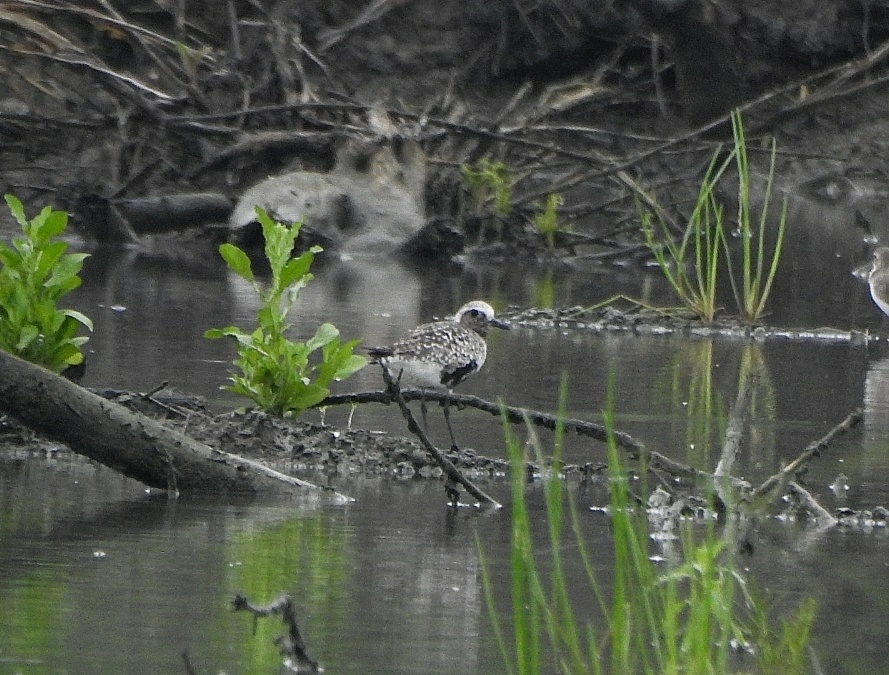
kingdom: Animalia
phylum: Chordata
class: Aves
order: Charadriiformes
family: Charadriidae
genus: Pluvialis
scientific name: Pluvialis squatarola
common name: Grey plover
